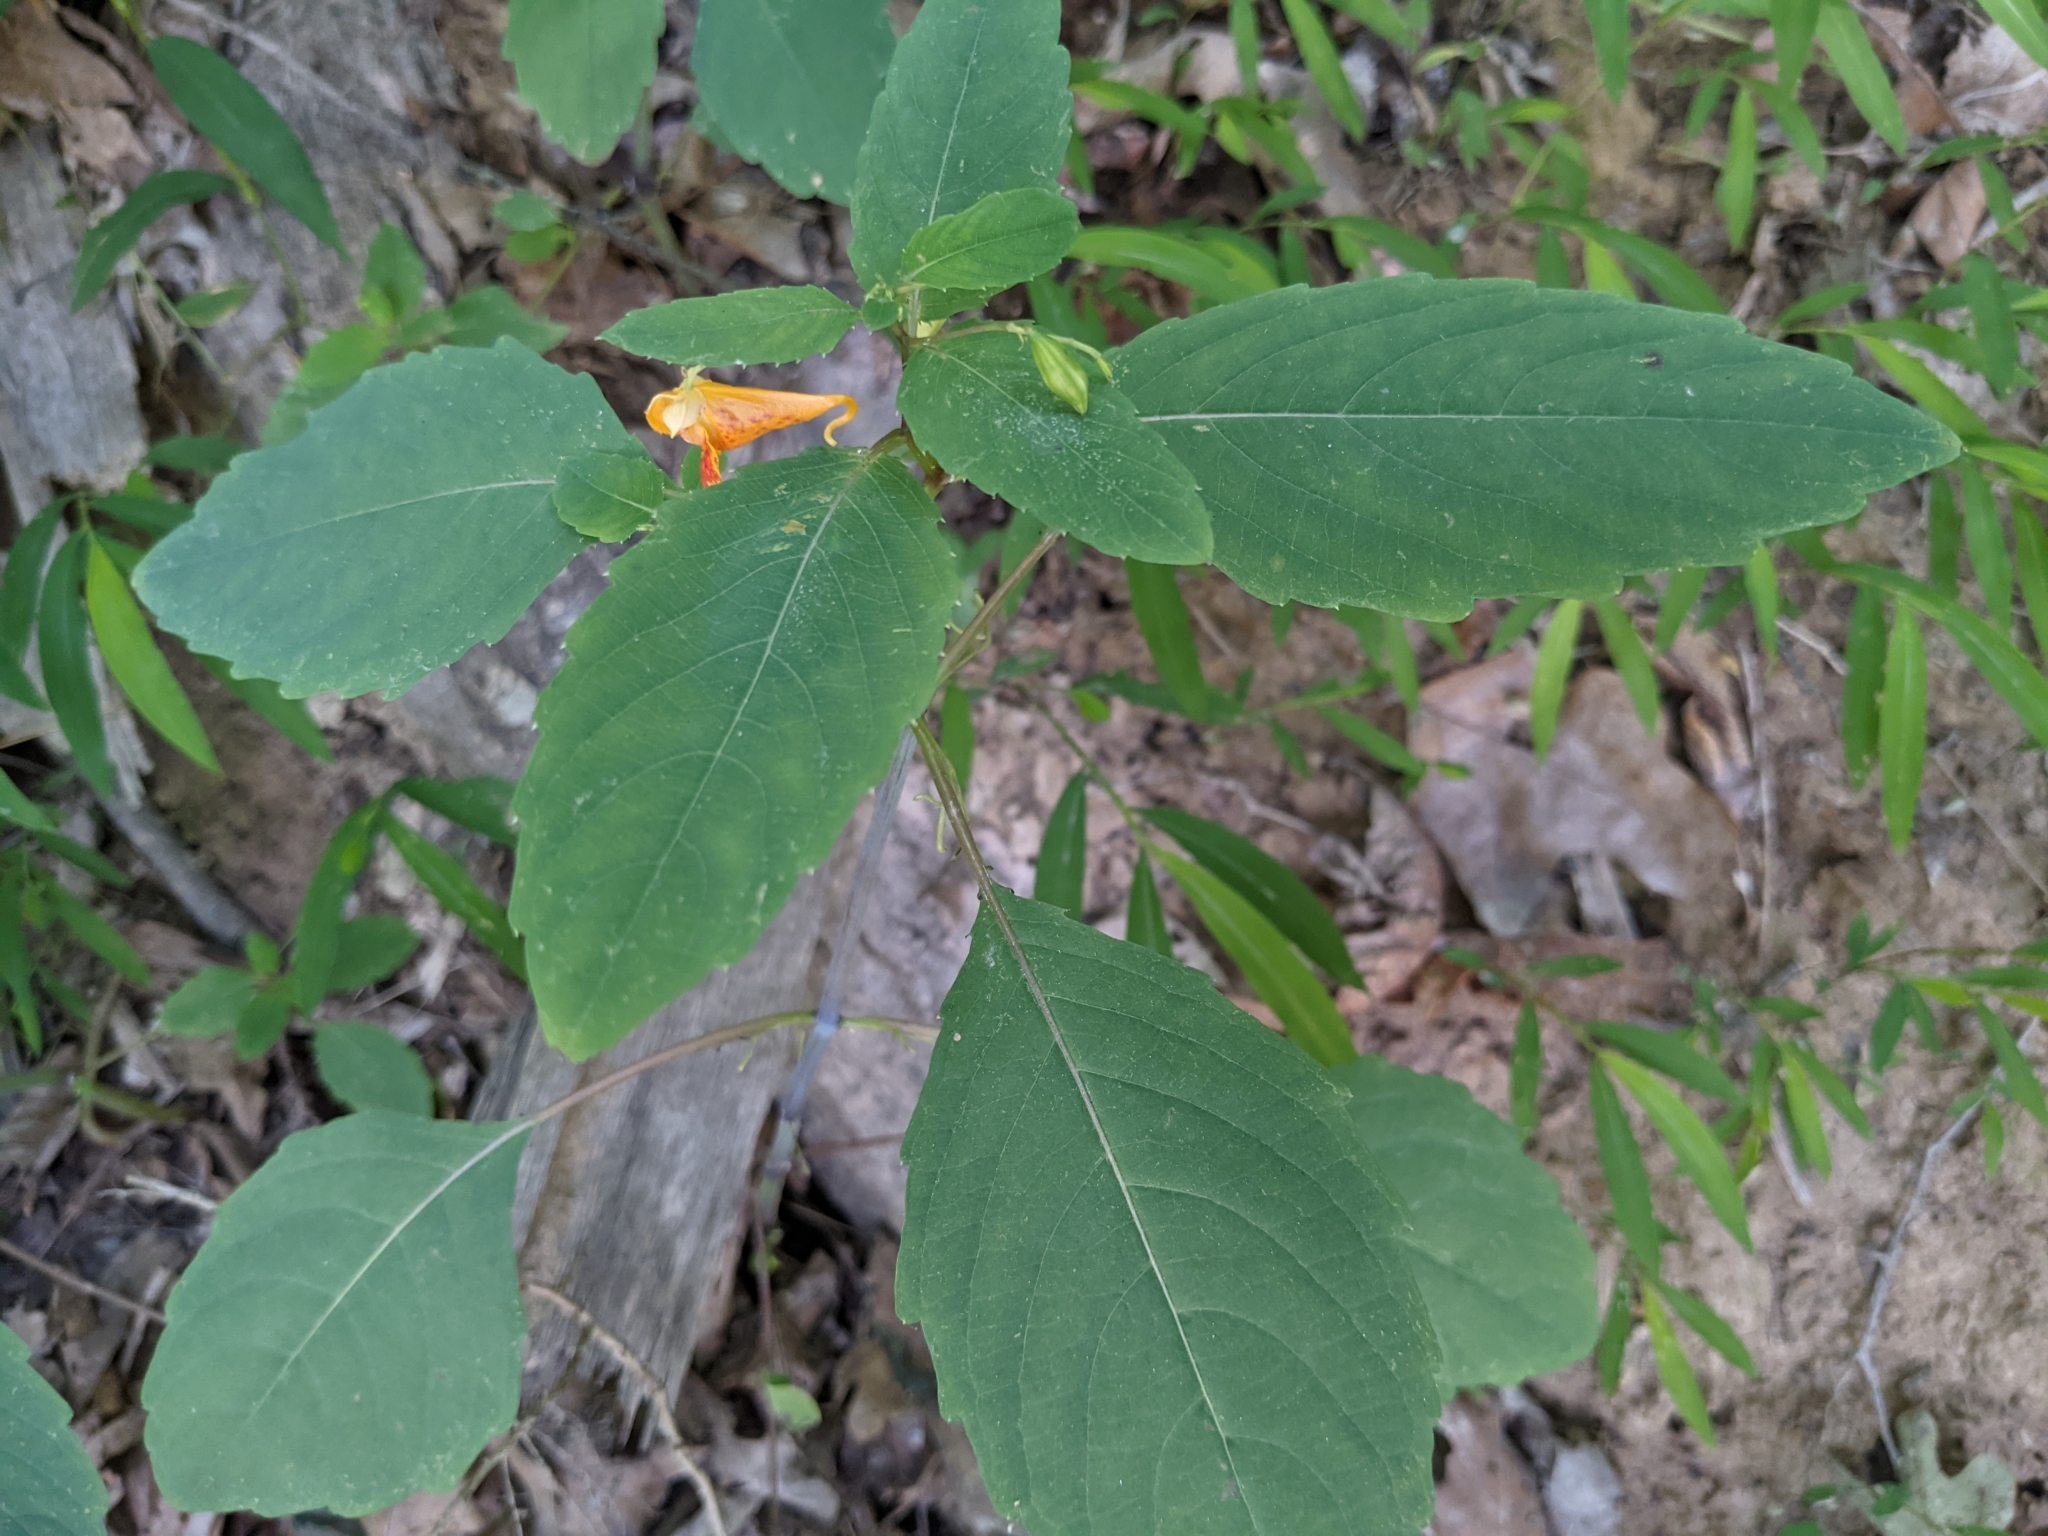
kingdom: Plantae
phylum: Tracheophyta
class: Magnoliopsida
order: Ericales
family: Balsaminaceae
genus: Impatiens
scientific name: Impatiens capensis
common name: Orange balsam
